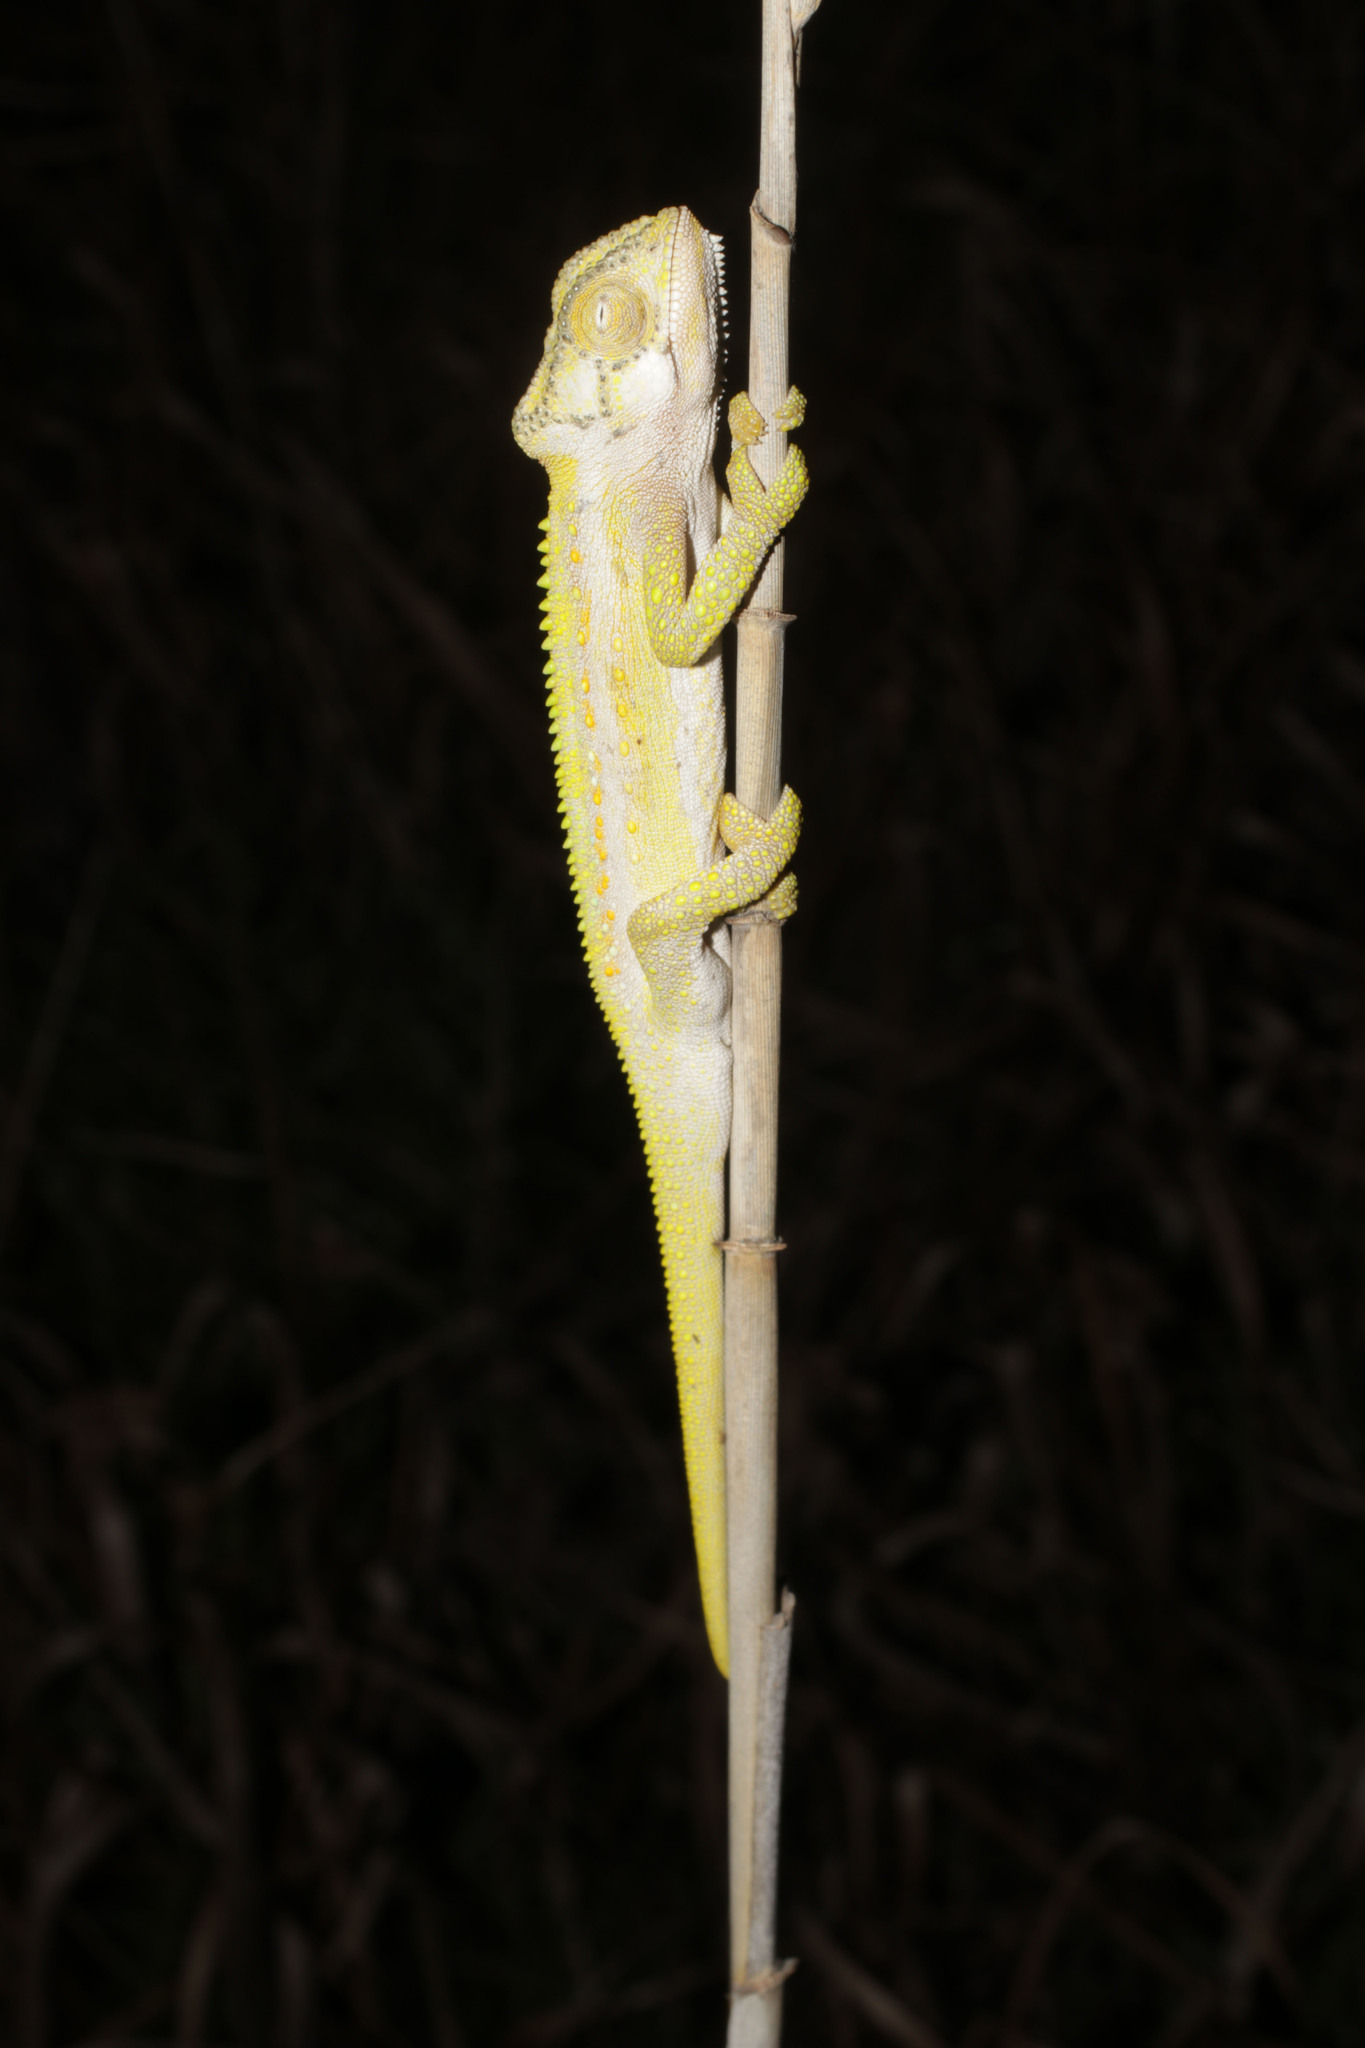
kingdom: Animalia
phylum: Chordata
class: Squamata
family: Chamaeleonidae
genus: Bradypodion
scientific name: Bradypodion pumilum
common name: Cape dwarf chameleon
